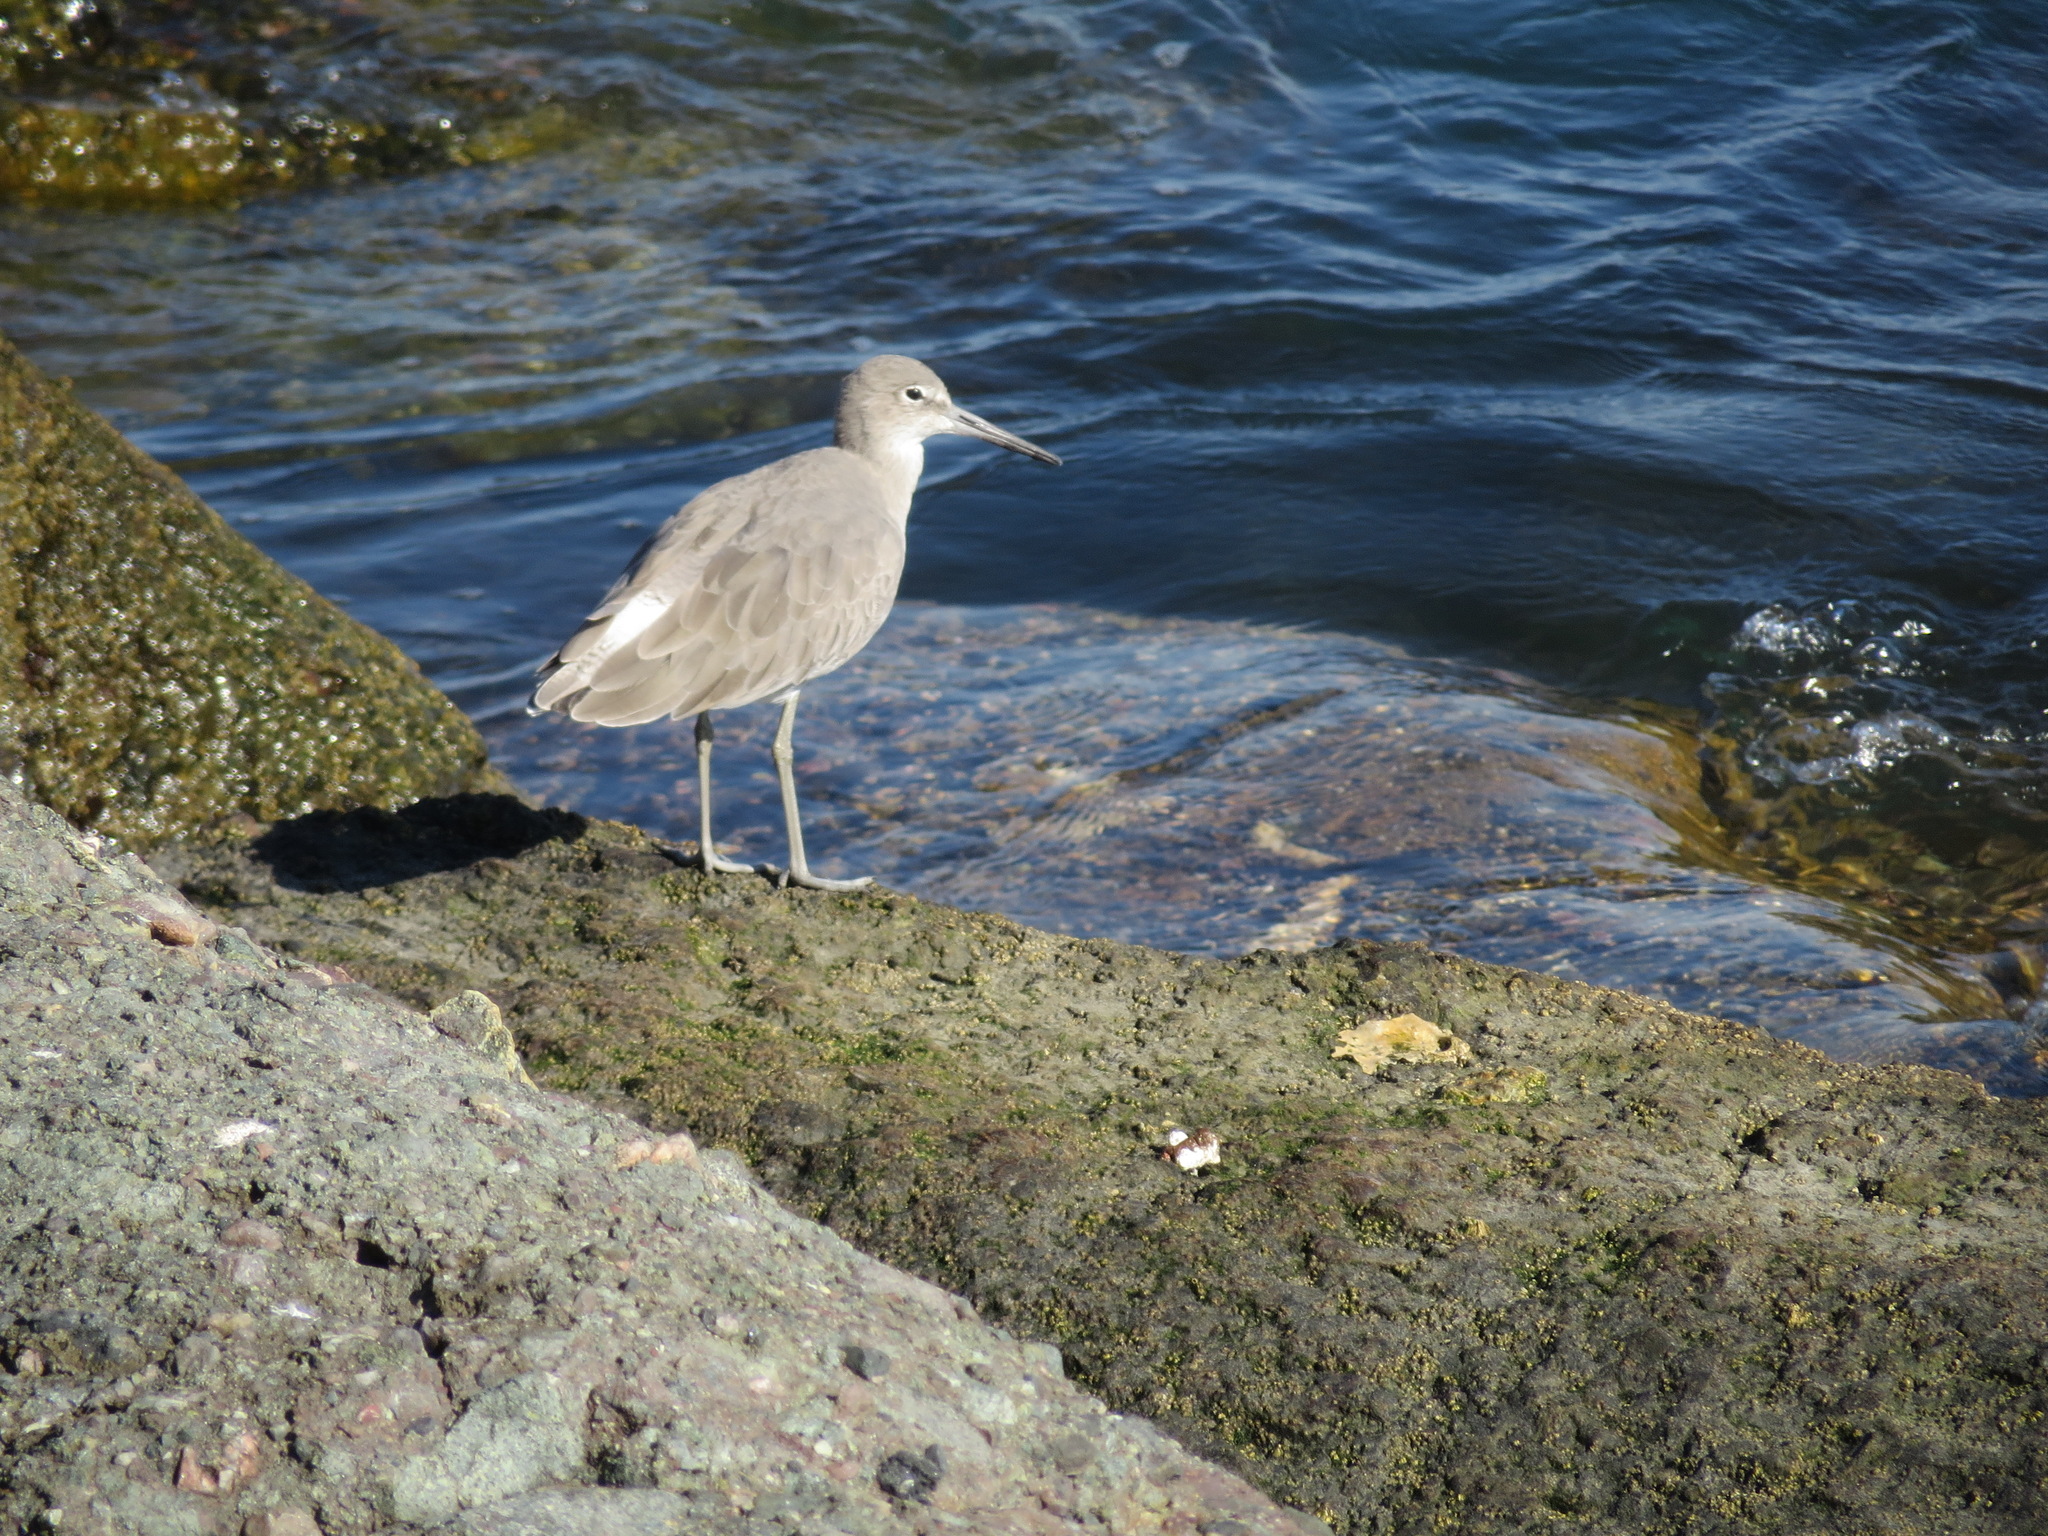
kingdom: Animalia
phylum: Chordata
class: Aves
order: Charadriiformes
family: Scolopacidae
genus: Tringa
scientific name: Tringa semipalmata
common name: Willet
